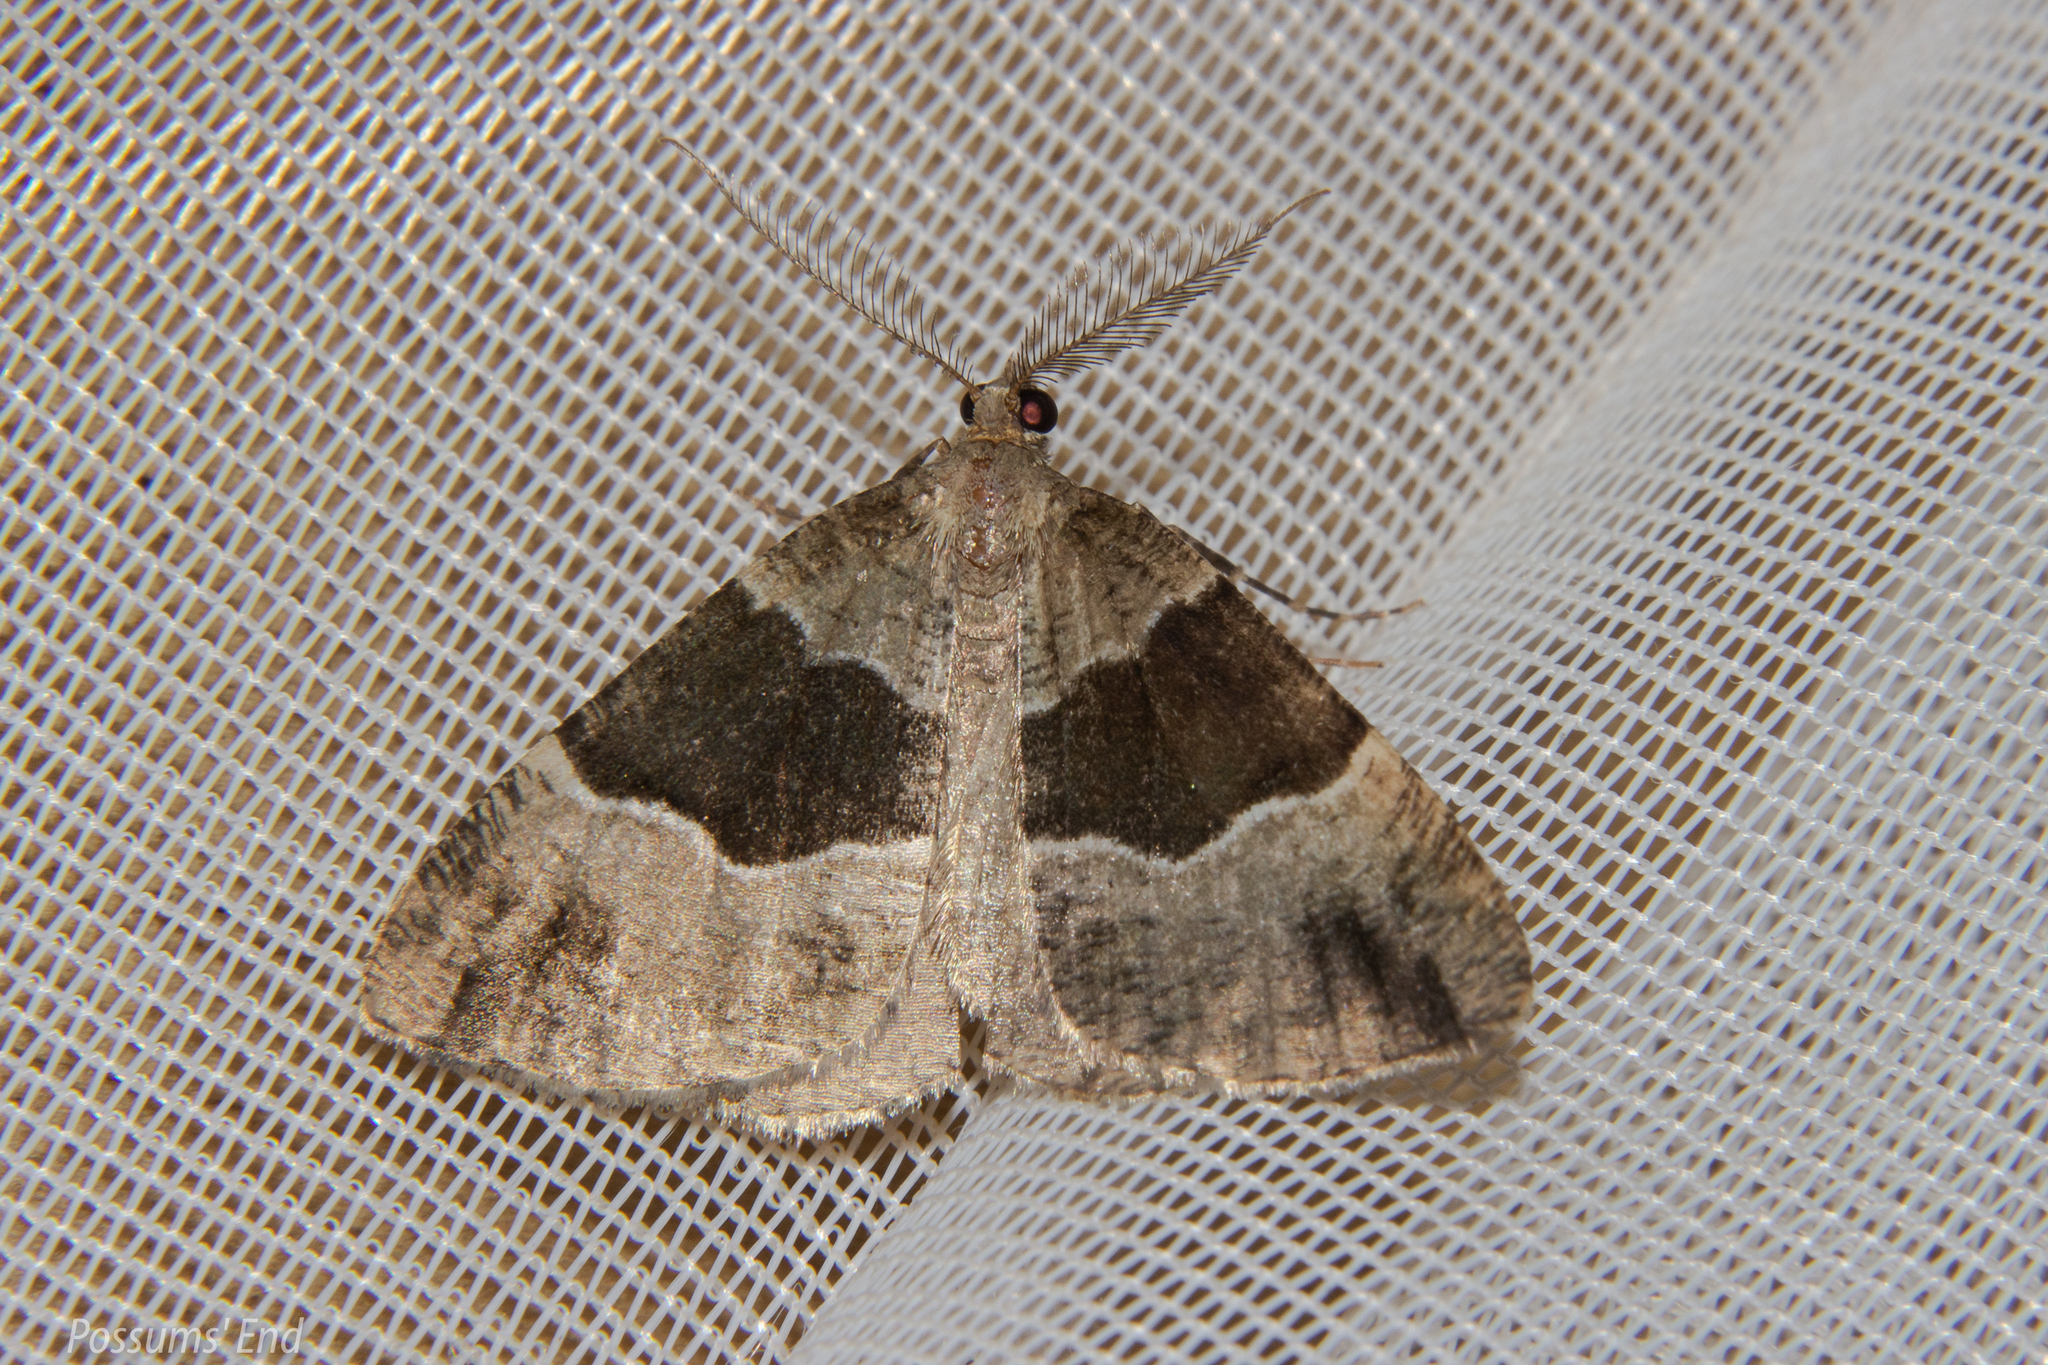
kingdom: Animalia
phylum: Arthropoda
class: Insecta
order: Lepidoptera
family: Geometridae
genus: Pseudocoremia
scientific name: Pseudocoremia
